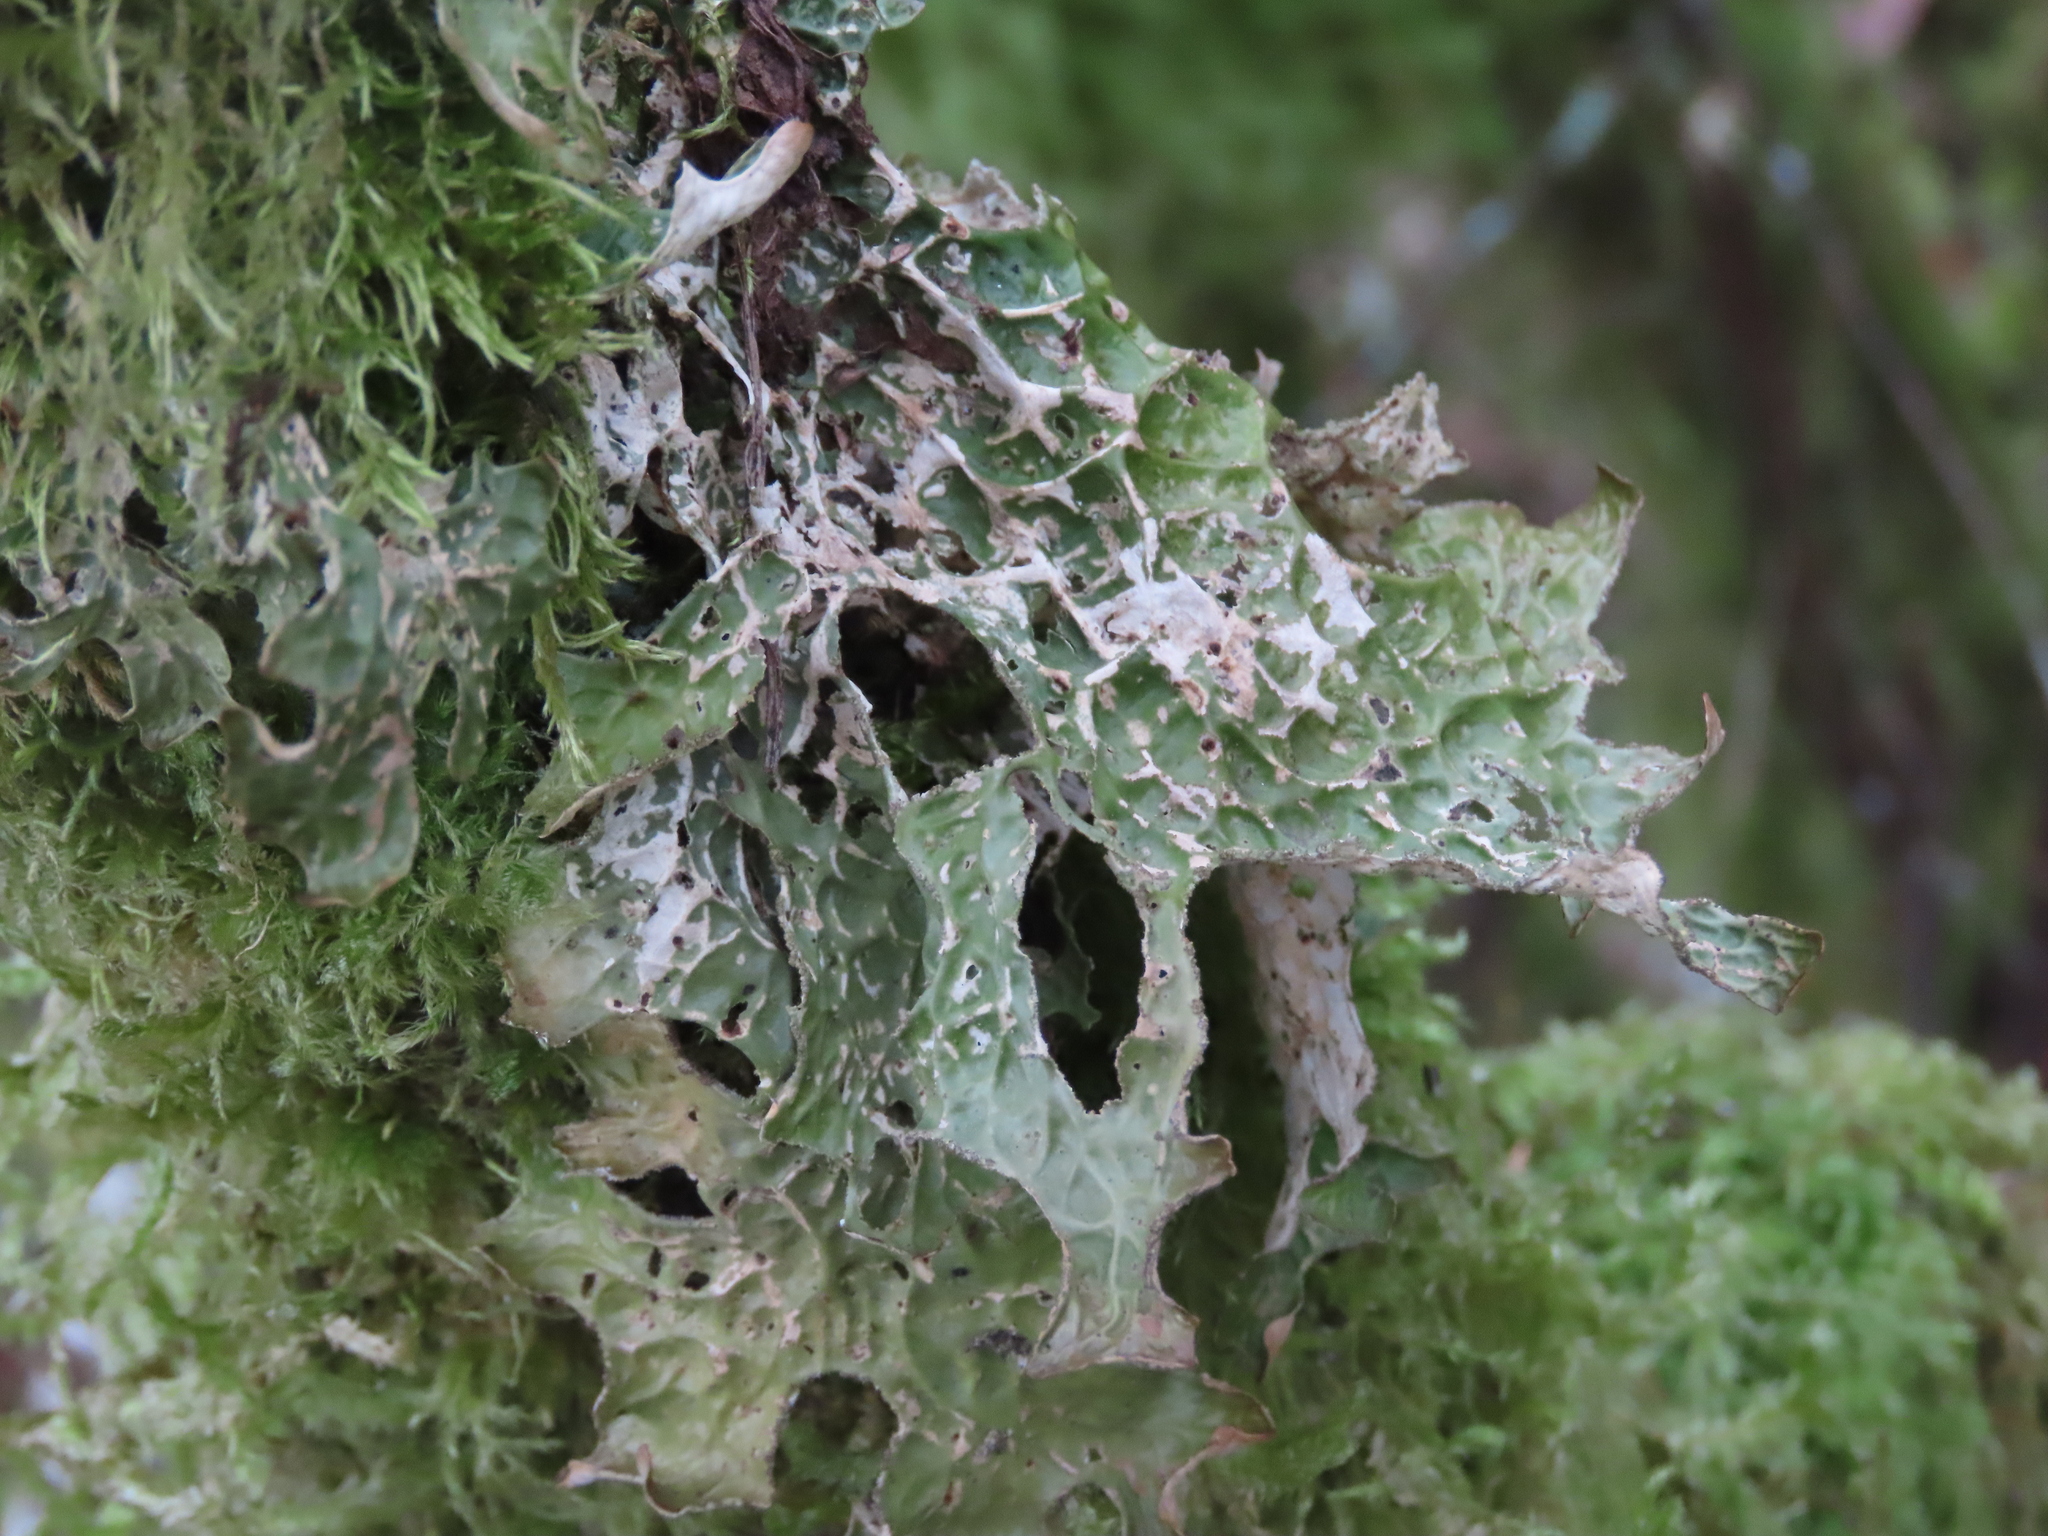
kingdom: Fungi
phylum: Ascomycota
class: Lecanoromycetes
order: Peltigerales
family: Lobariaceae
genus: Lobaria
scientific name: Lobaria pulmonaria
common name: Lungwort
